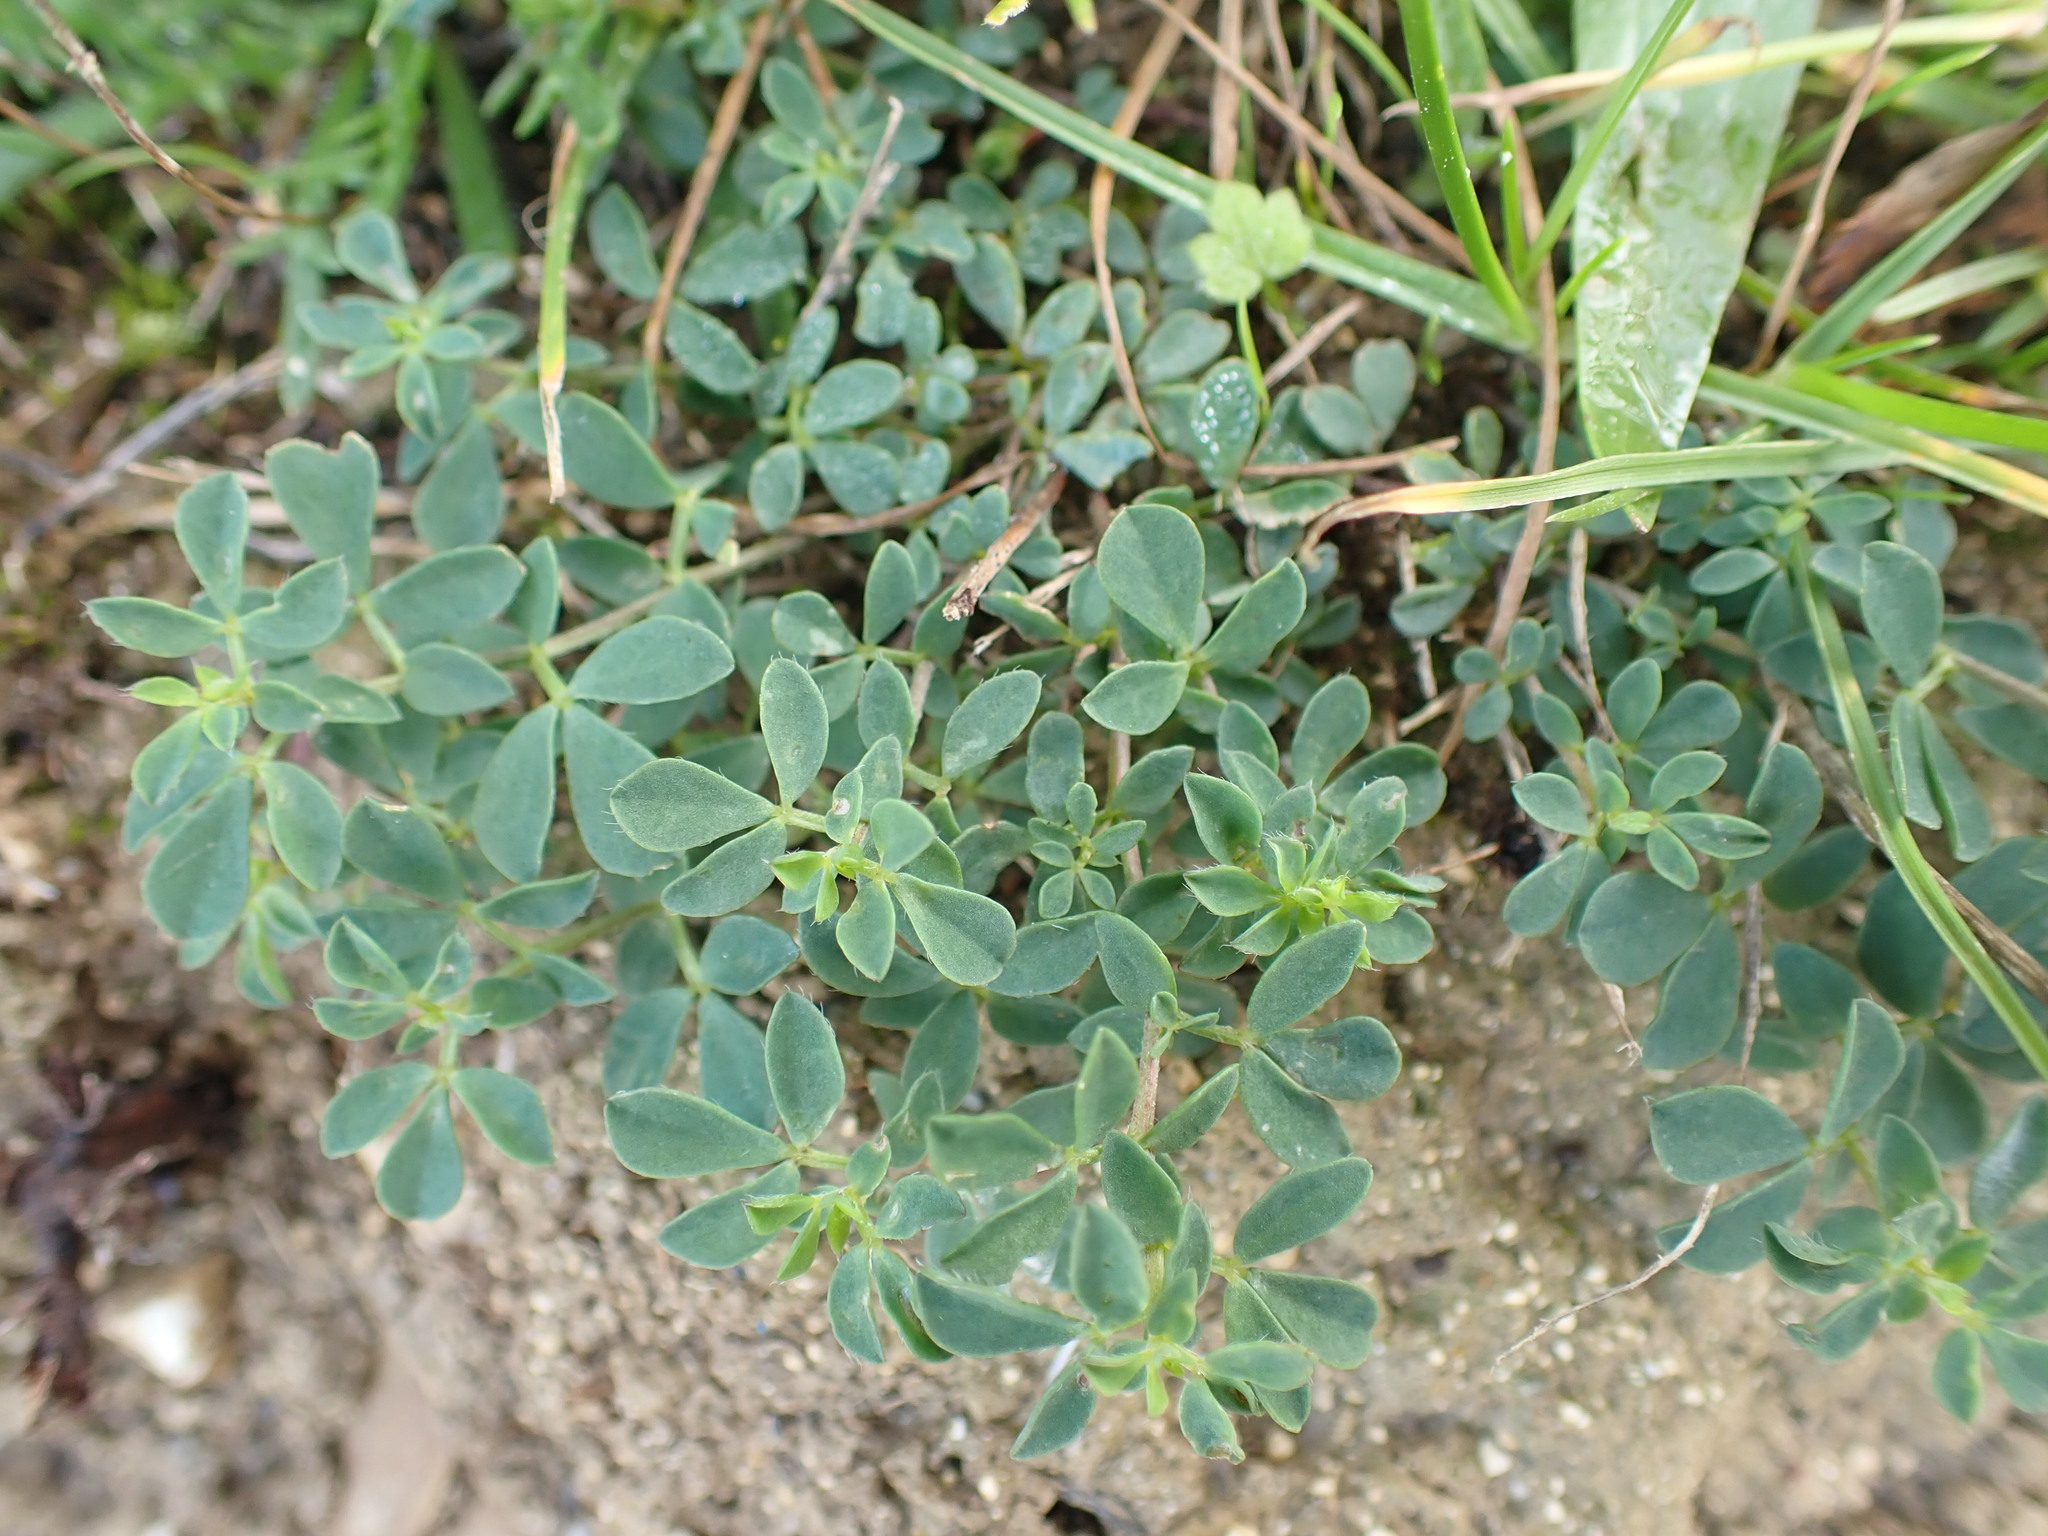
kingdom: Plantae
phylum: Tracheophyta
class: Magnoliopsida
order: Fabales
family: Fabaceae
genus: Lotus
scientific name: Lotus corniculatus
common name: Common bird's-foot-trefoil
